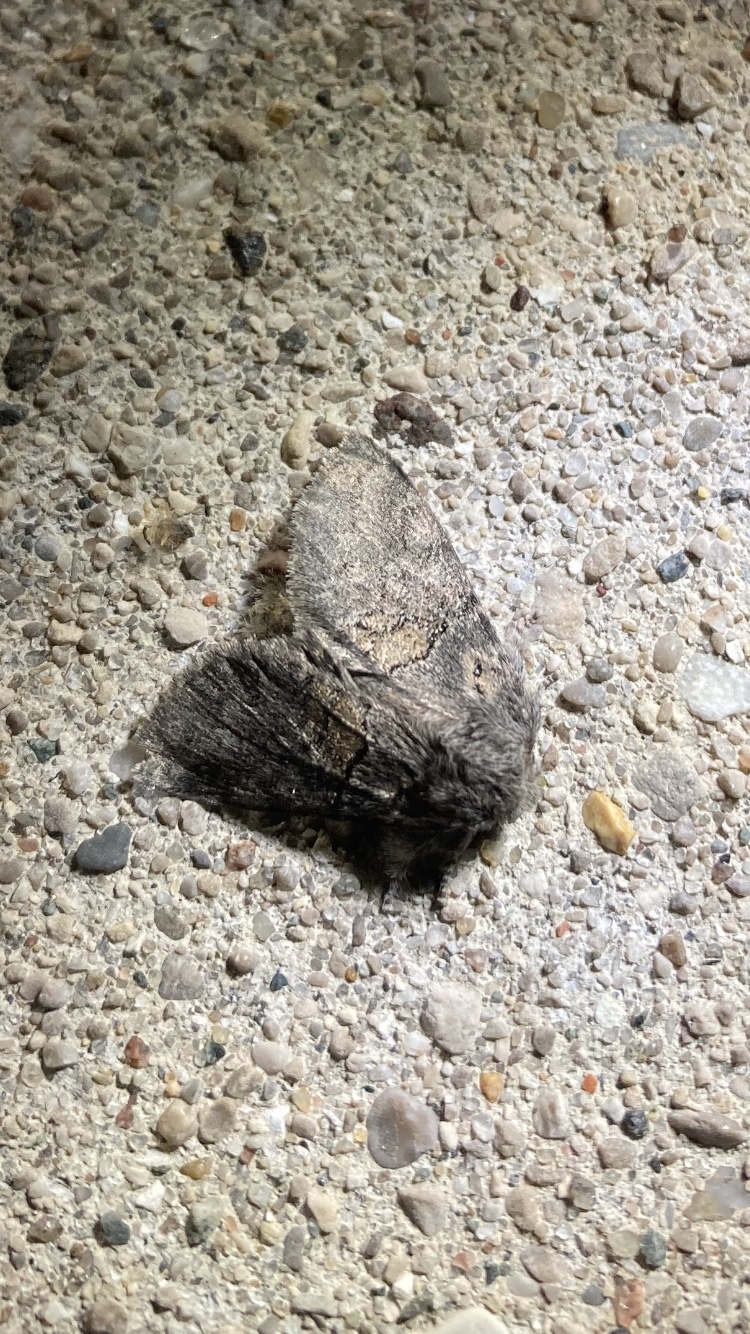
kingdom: Animalia
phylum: Arthropoda
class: Insecta
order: Lepidoptera
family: Notodontidae
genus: Gluphisia
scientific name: Gluphisia septentrionis
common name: Common gluphisia
